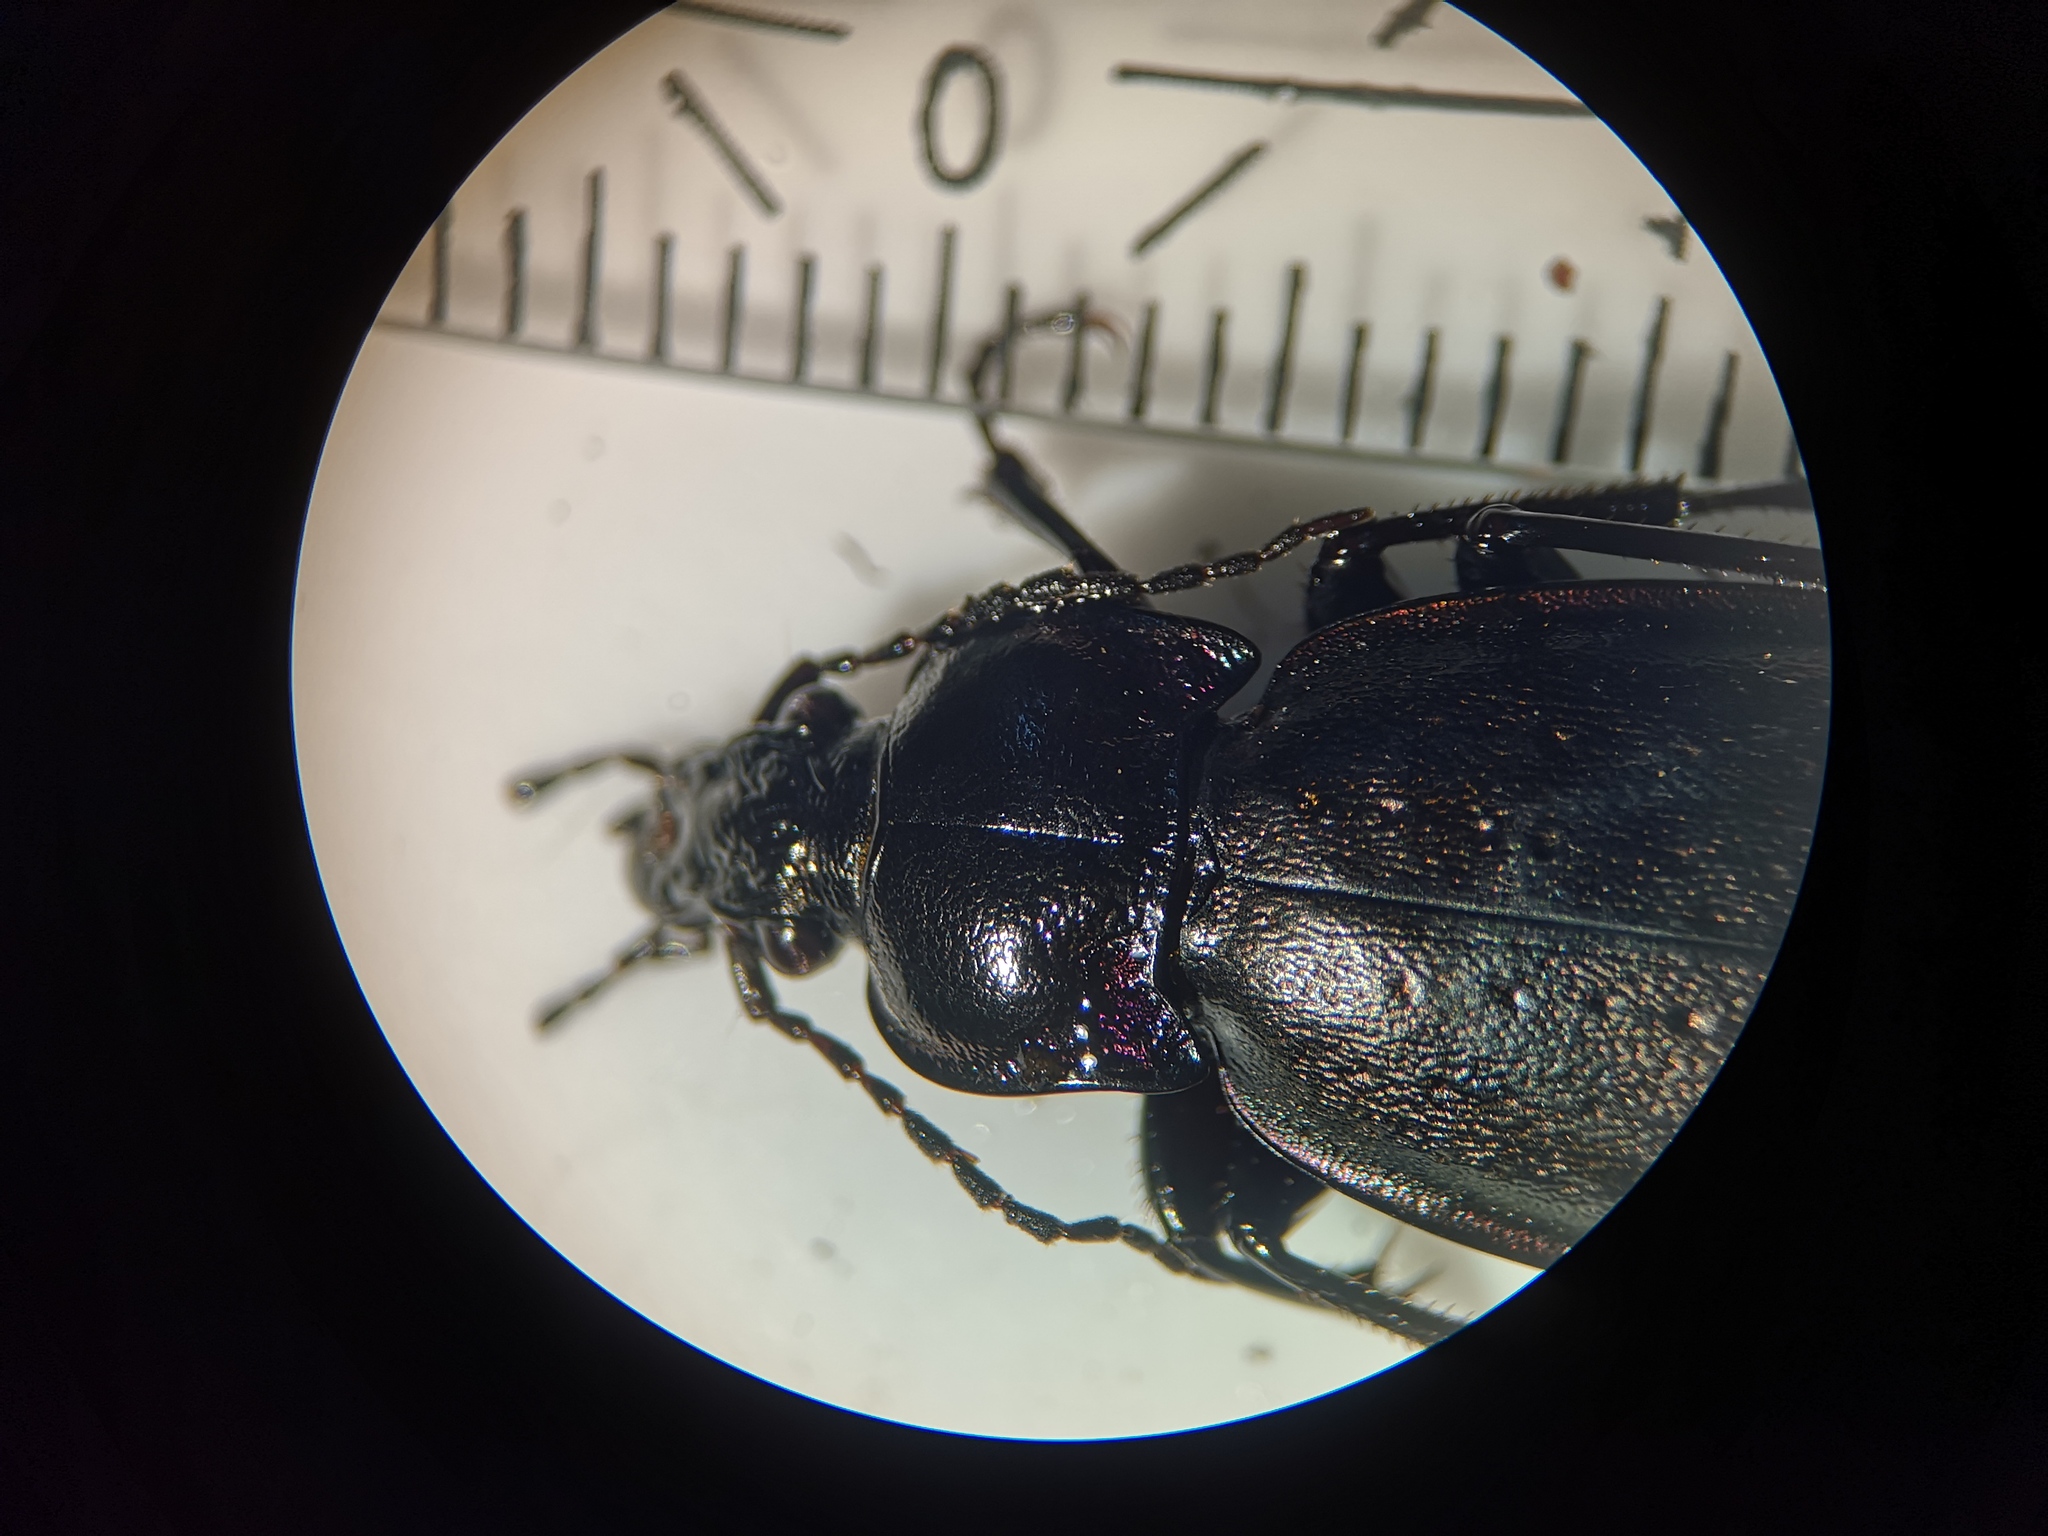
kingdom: Animalia
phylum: Arthropoda
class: Insecta
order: Coleoptera
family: Carabidae
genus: Carabus
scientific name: Carabus nemoralis
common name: European ground beetle
